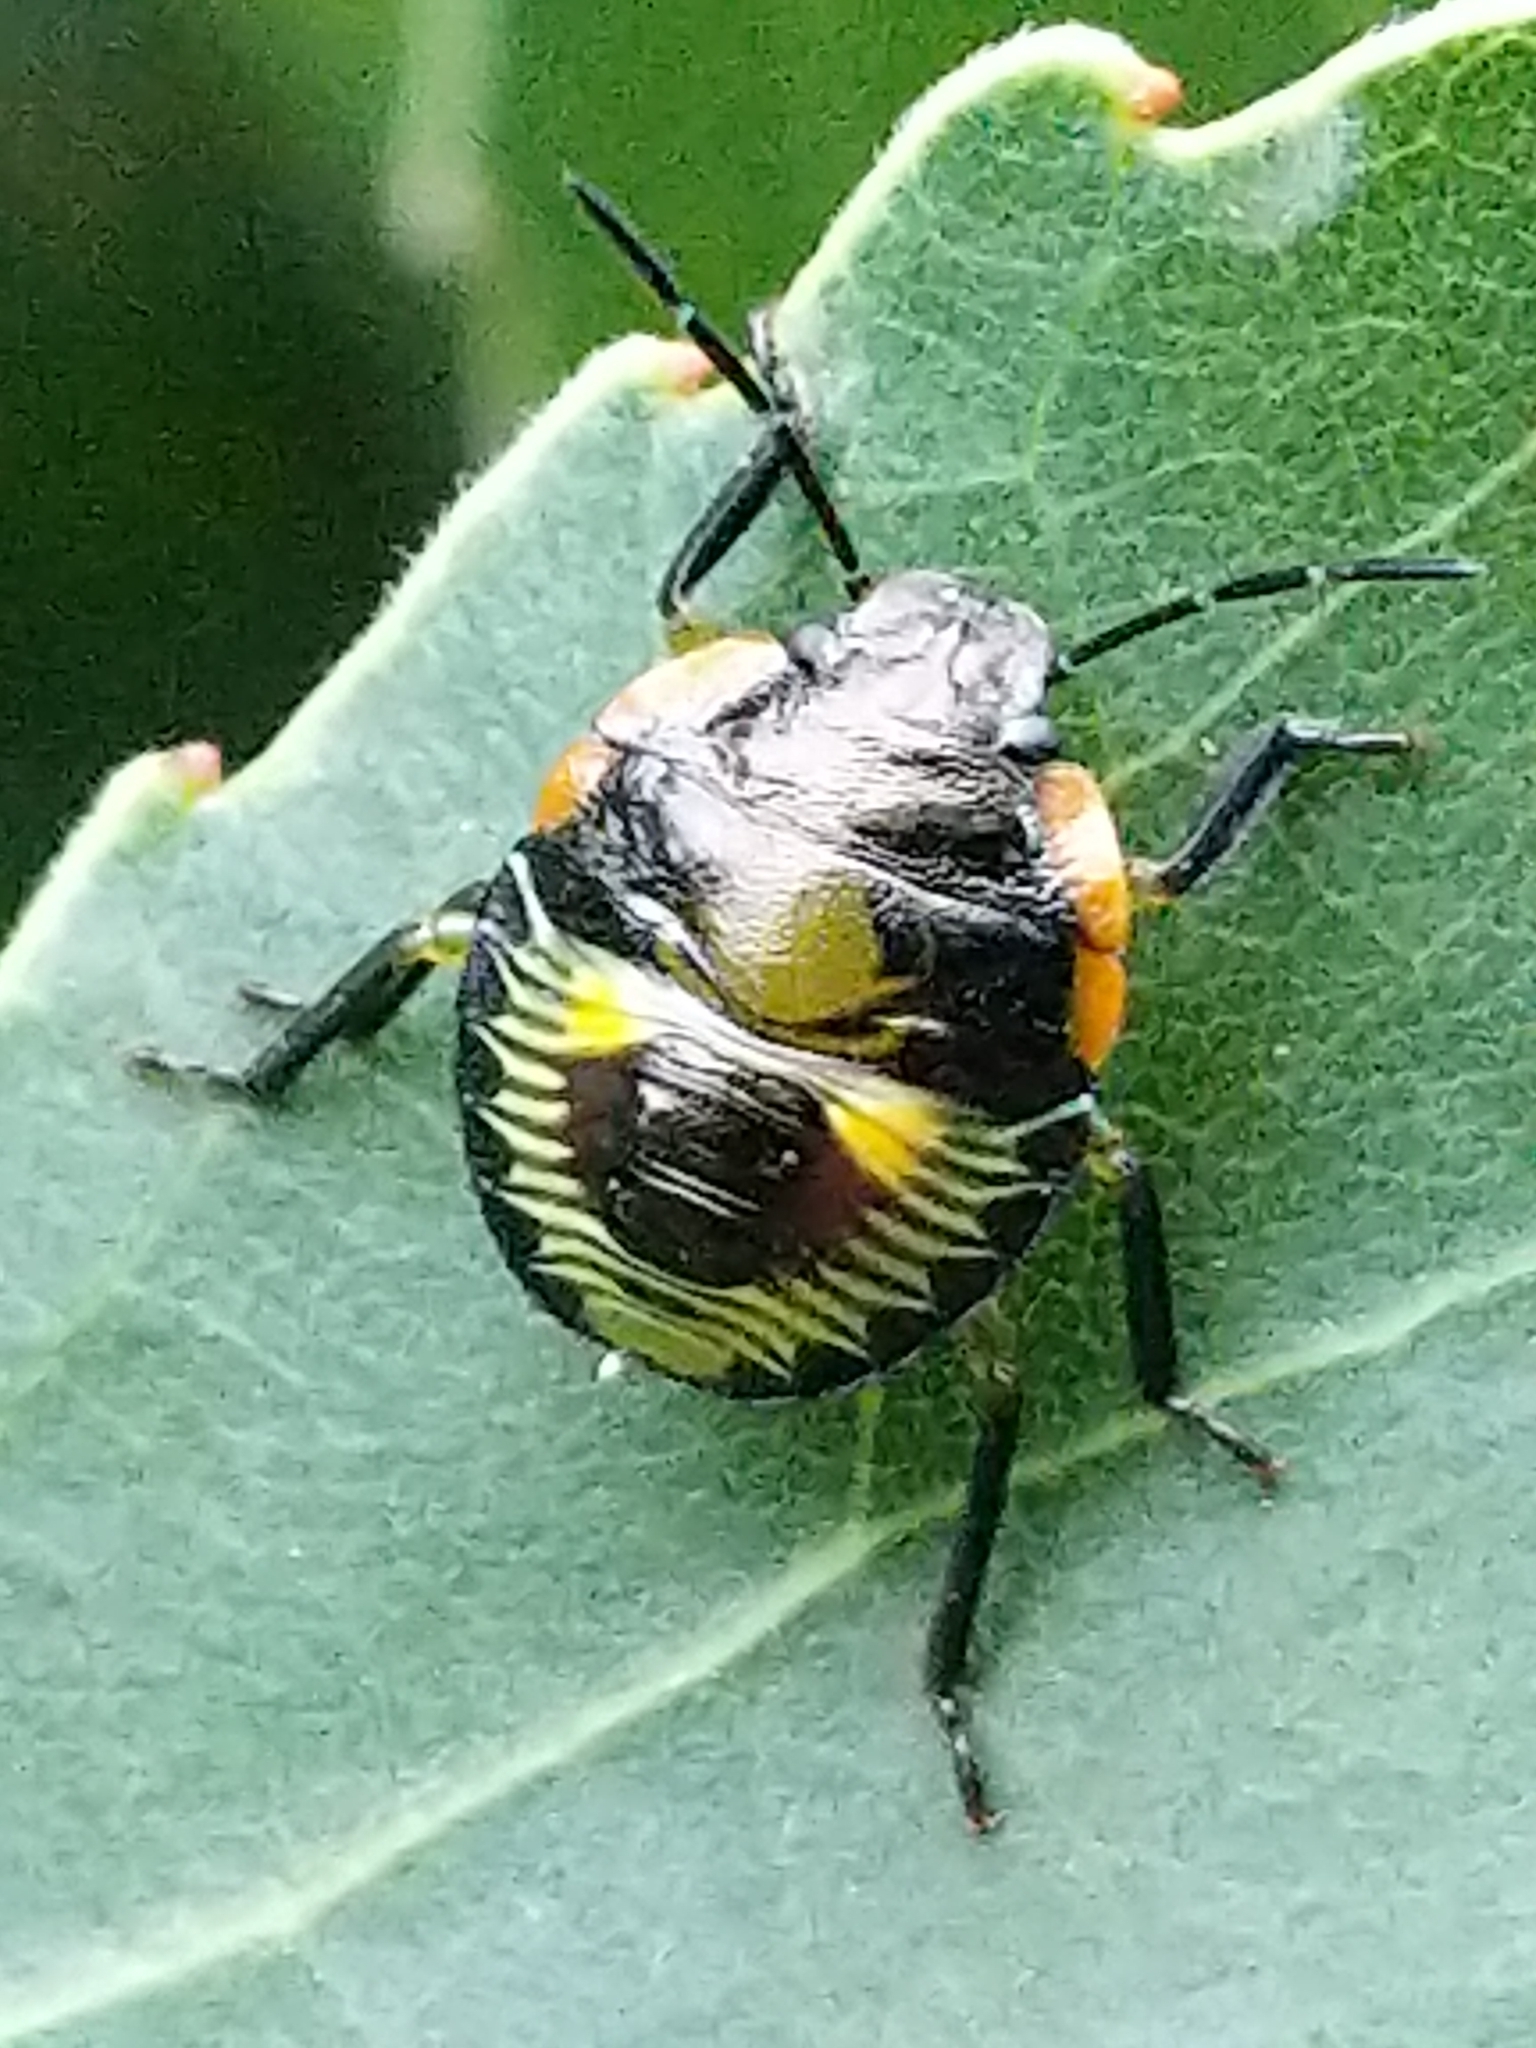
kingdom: Animalia
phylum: Arthropoda
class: Insecta
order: Hemiptera
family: Pentatomidae
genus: Chinavia
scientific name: Chinavia hilaris
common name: Green stink bug
